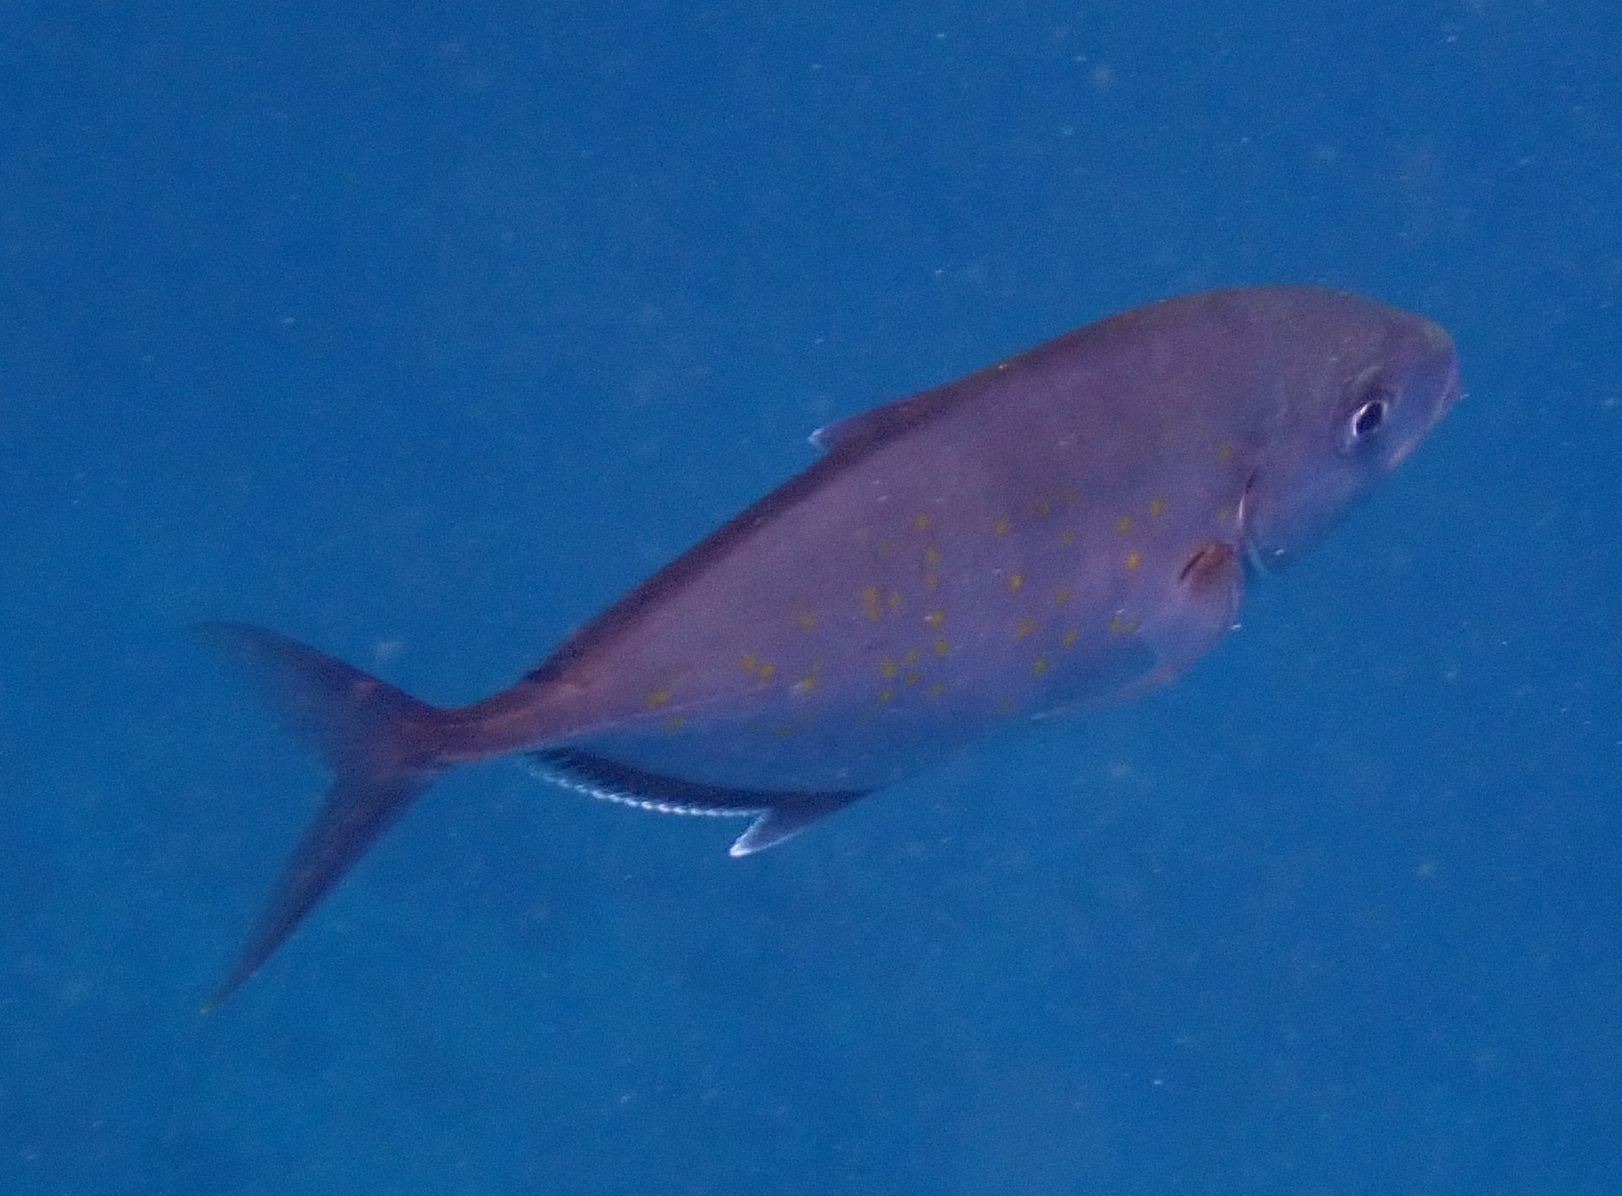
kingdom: Animalia
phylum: Chordata
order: Perciformes
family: Carangidae
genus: Flavocaranx
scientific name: Flavocaranx bajad
